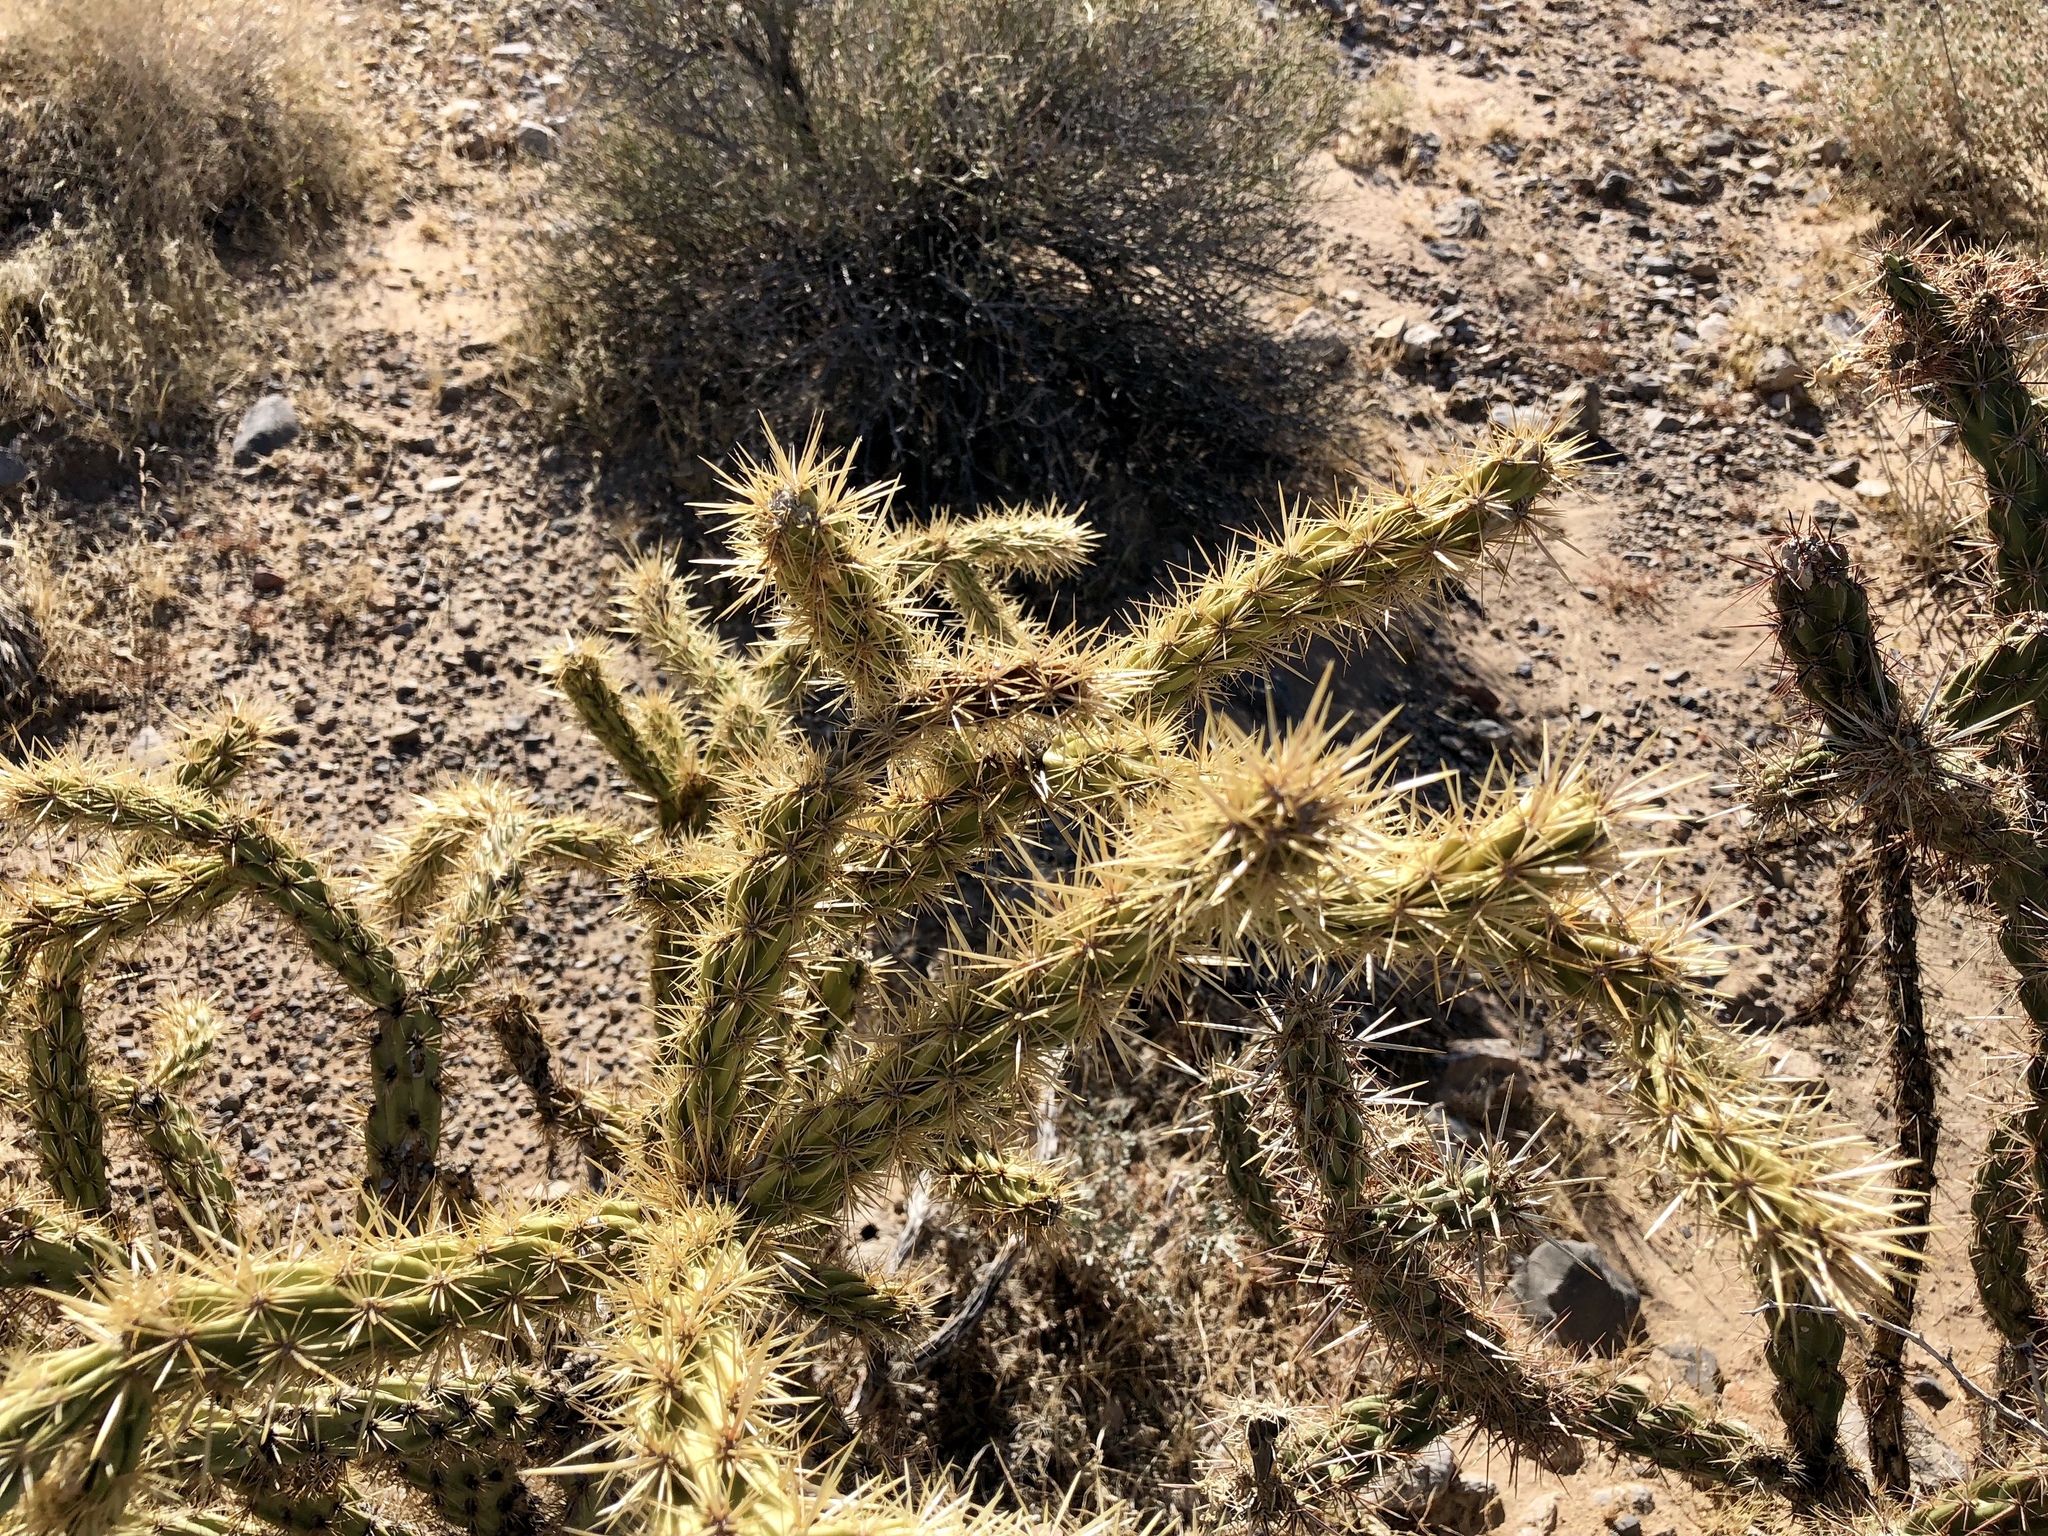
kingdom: Plantae
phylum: Tracheophyta
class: Magnoliopsida
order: Caryophyllales
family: Cactaceae
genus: Cylindropuntia
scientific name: Cylindropuntia acanthocarpa
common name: Buckhorn cholla
